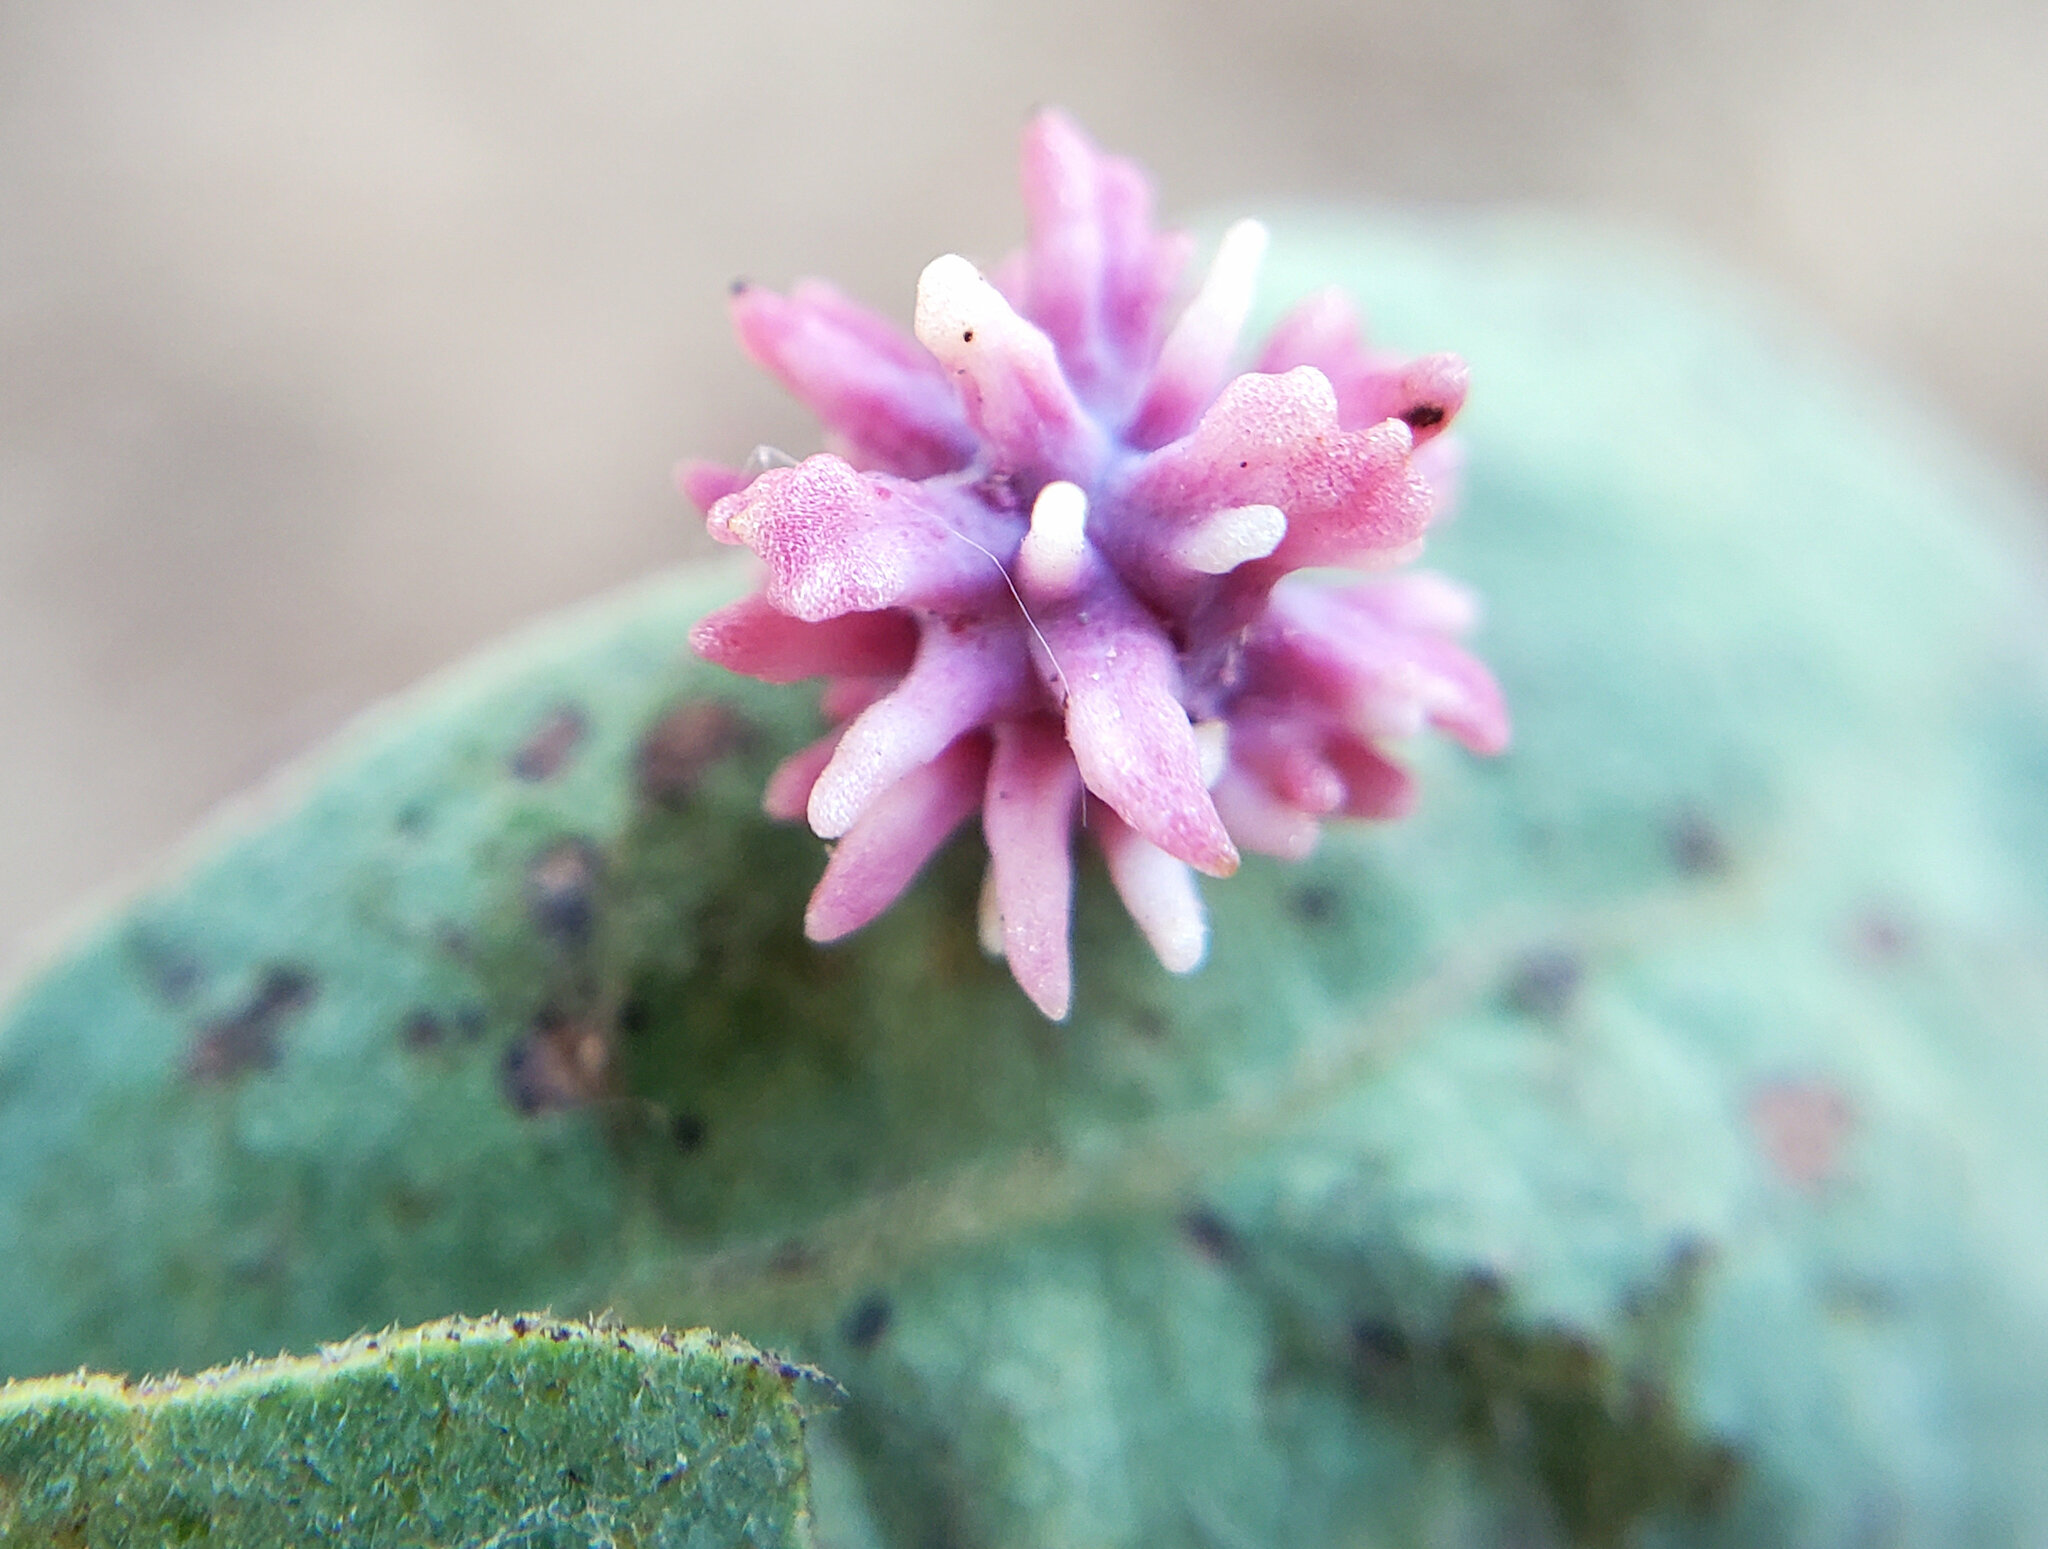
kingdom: Animalia
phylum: Arthropoda
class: Insecta
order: Hymenoptera
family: Cynipidae
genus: Cynips
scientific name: Cynips
